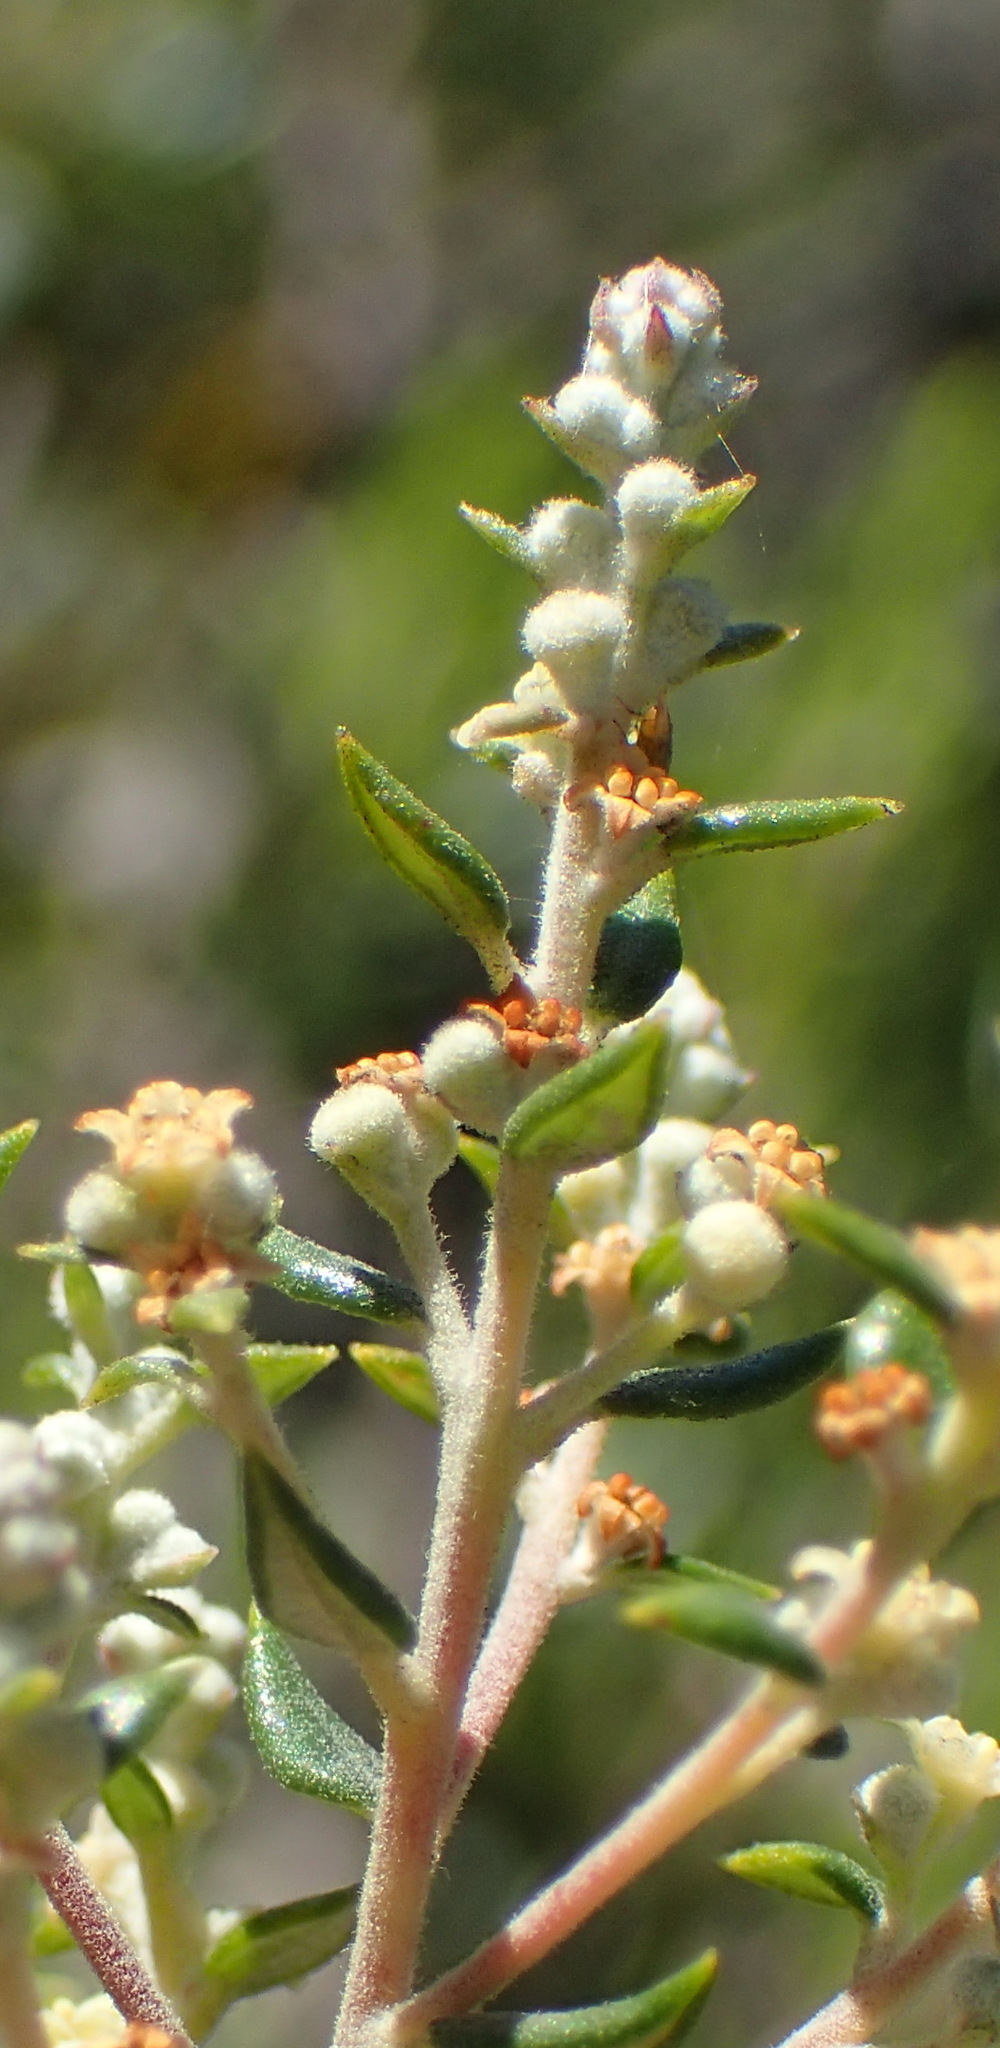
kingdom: Plantae
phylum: Tracheophyta
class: Magnoliopsida
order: Rosales
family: Rhamnaceae
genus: Phylica
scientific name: Phylica paniculata
